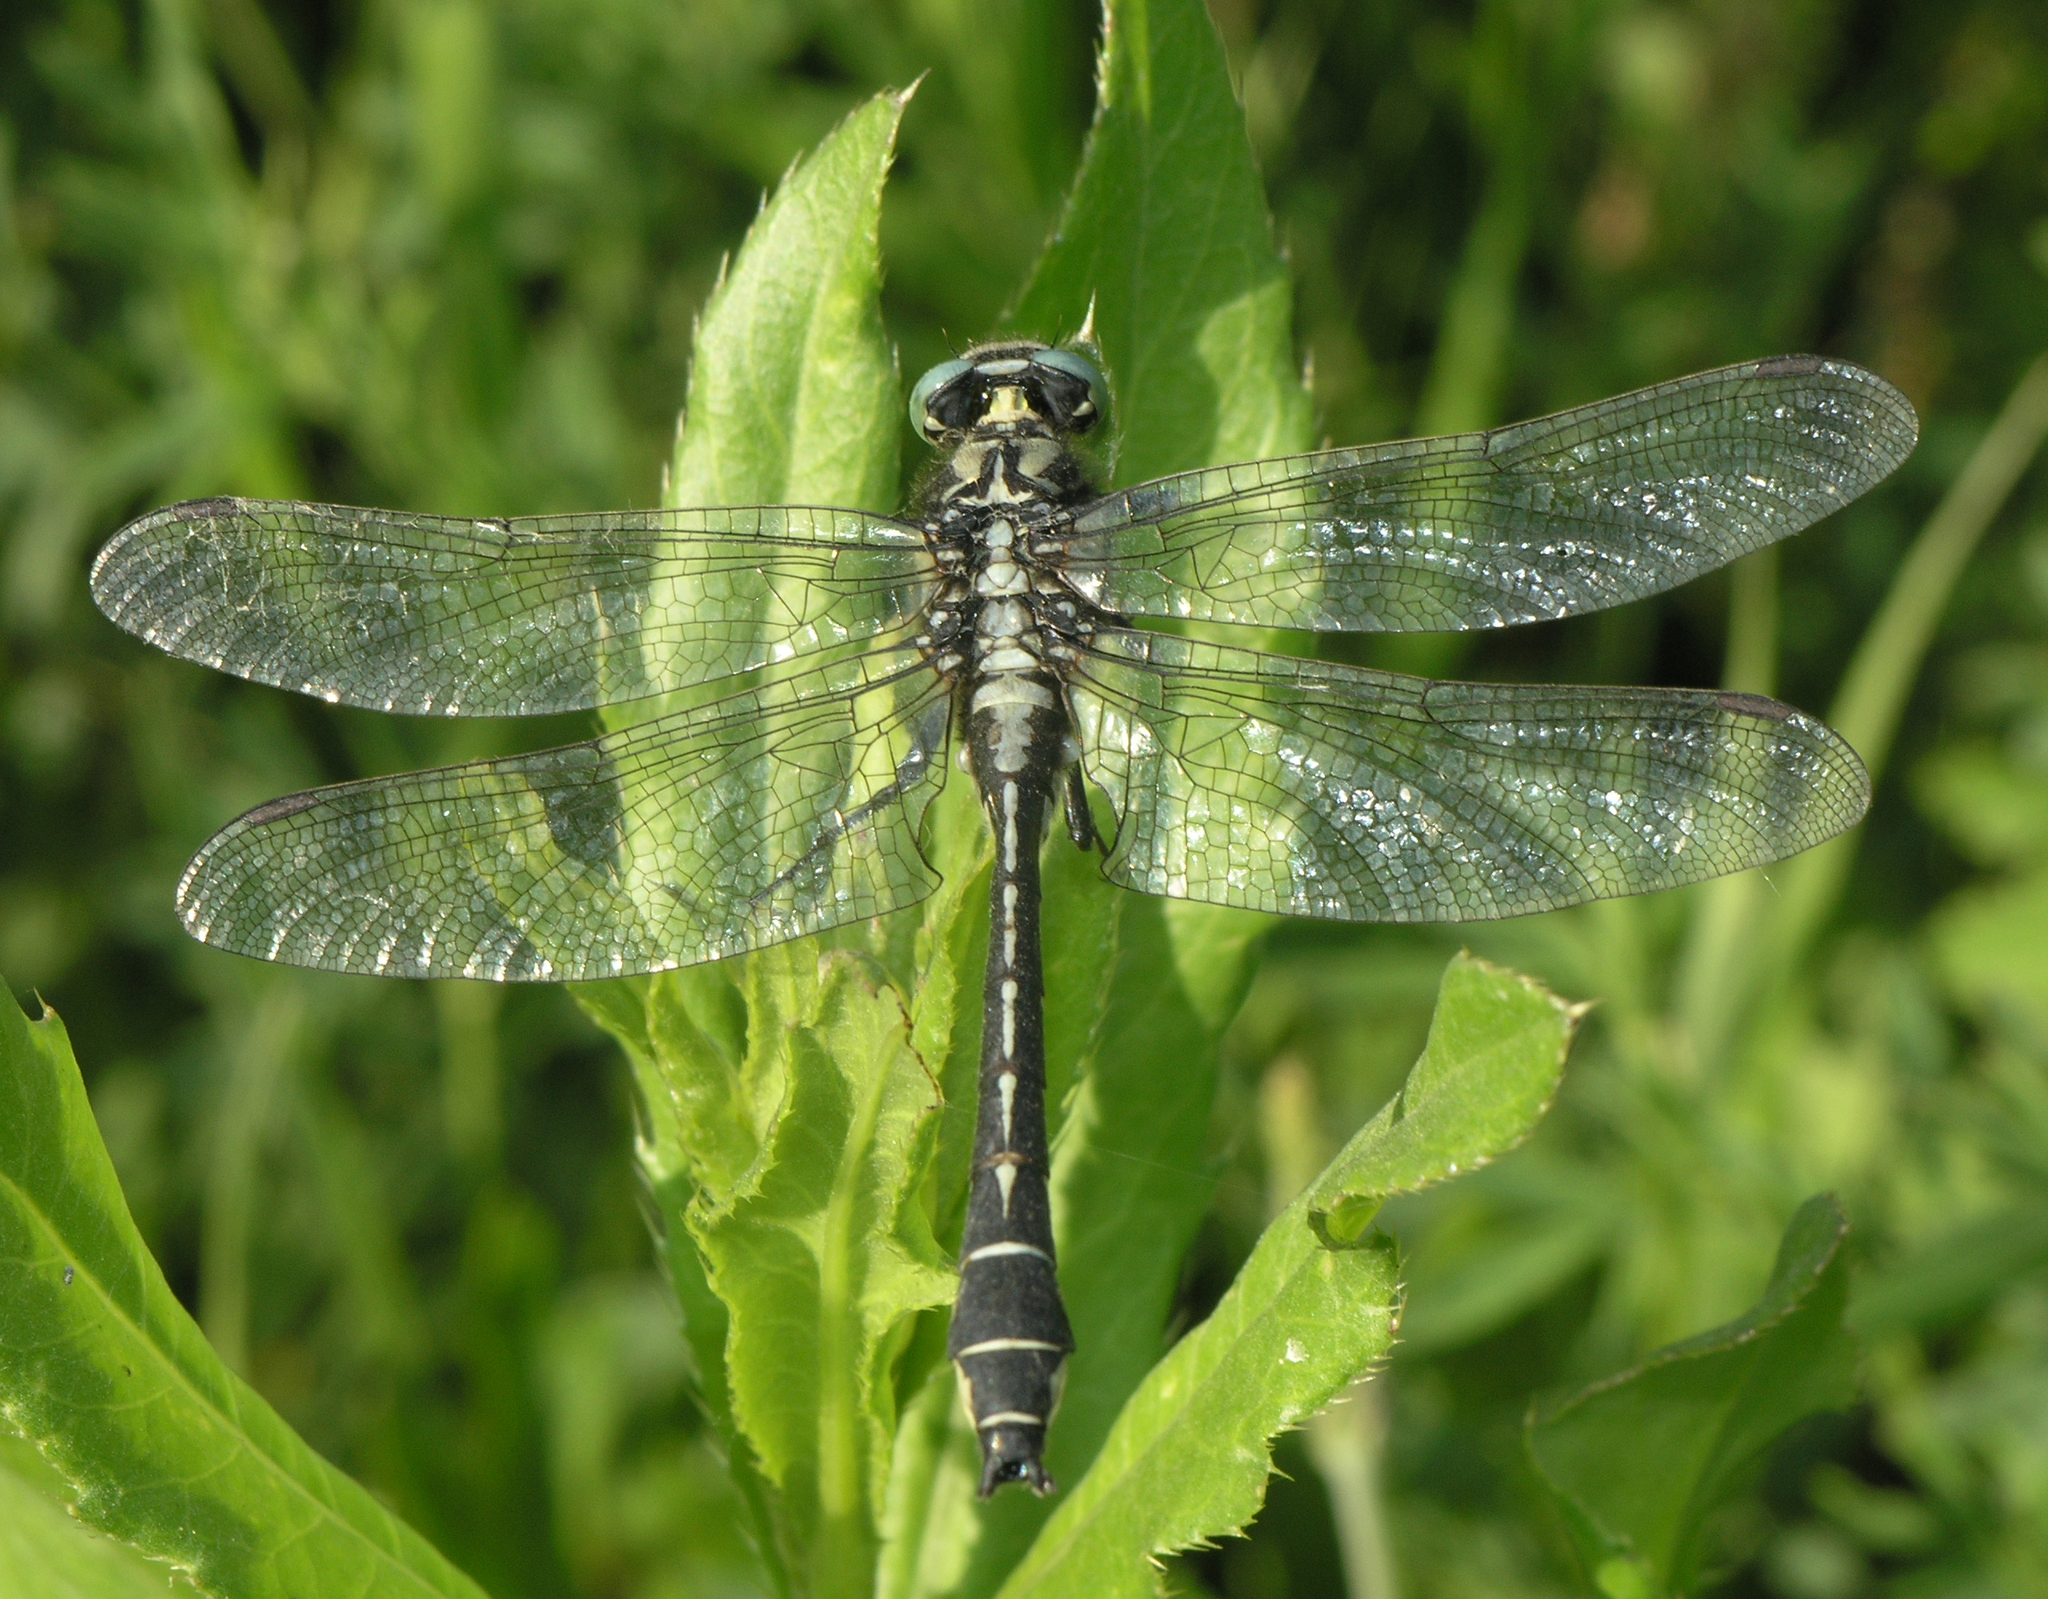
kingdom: Animalia
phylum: Arthropoda
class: Insecta
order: Odonata
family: Gomphidae
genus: Gomphus
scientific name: Gomphus vulgatissimus
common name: Club-tailed dragonfly
